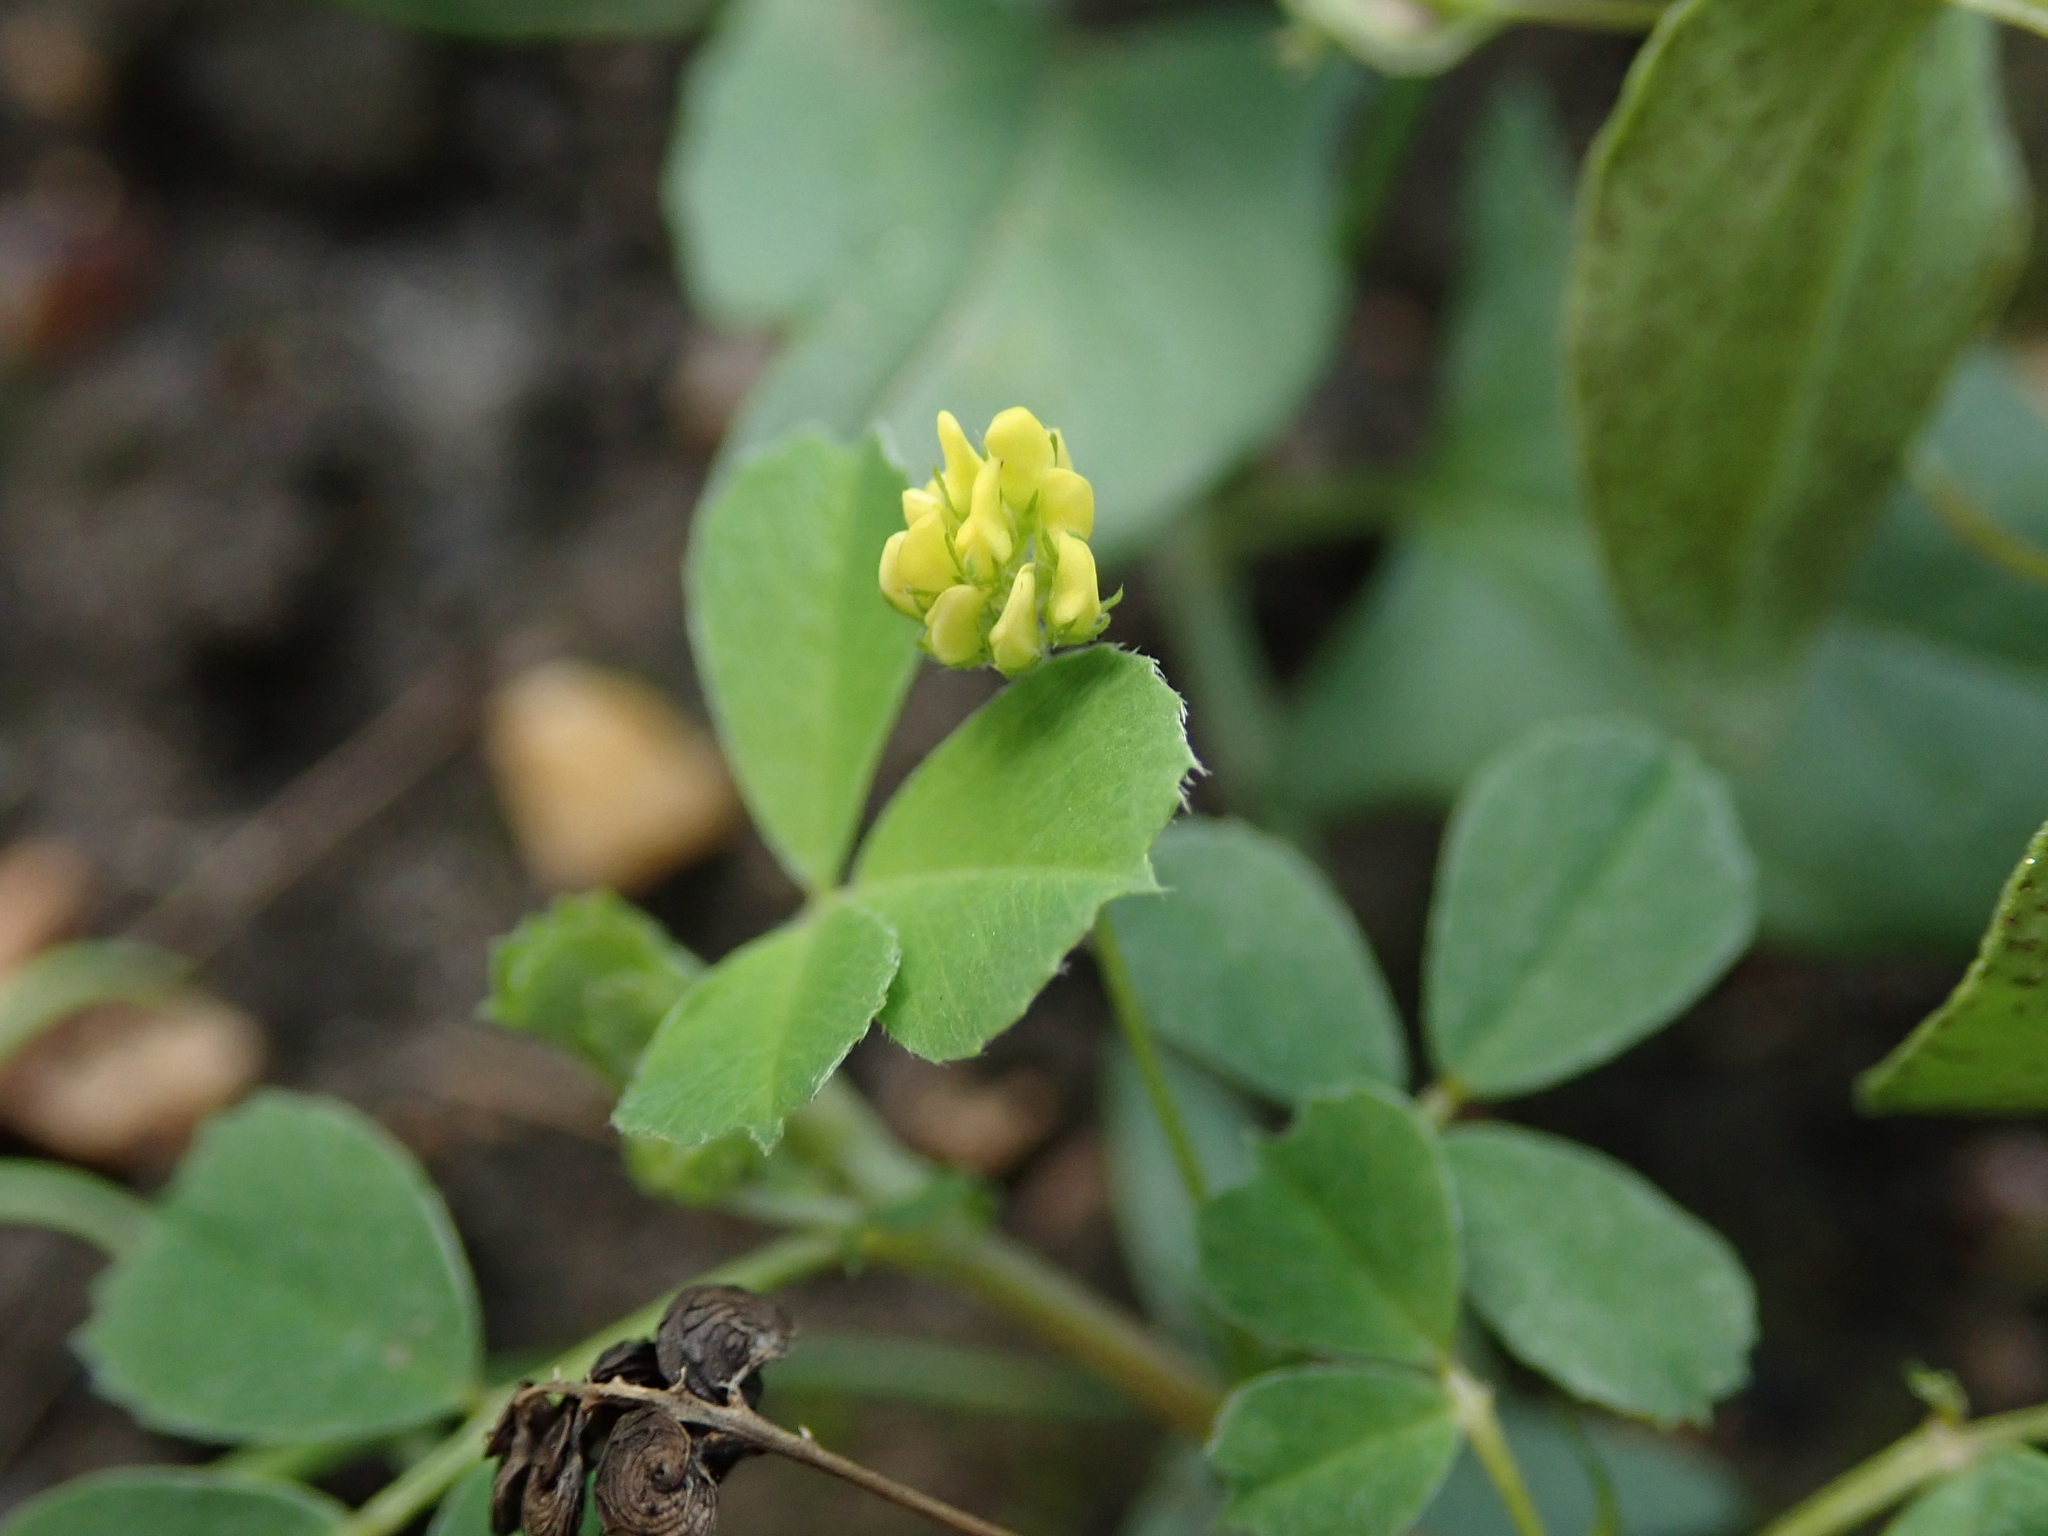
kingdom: Plantae
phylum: Tracheophyta
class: Magnoliopsida
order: Fabales
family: Fabaceae
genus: Medicago
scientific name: Medicago lupulina
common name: Black medick
